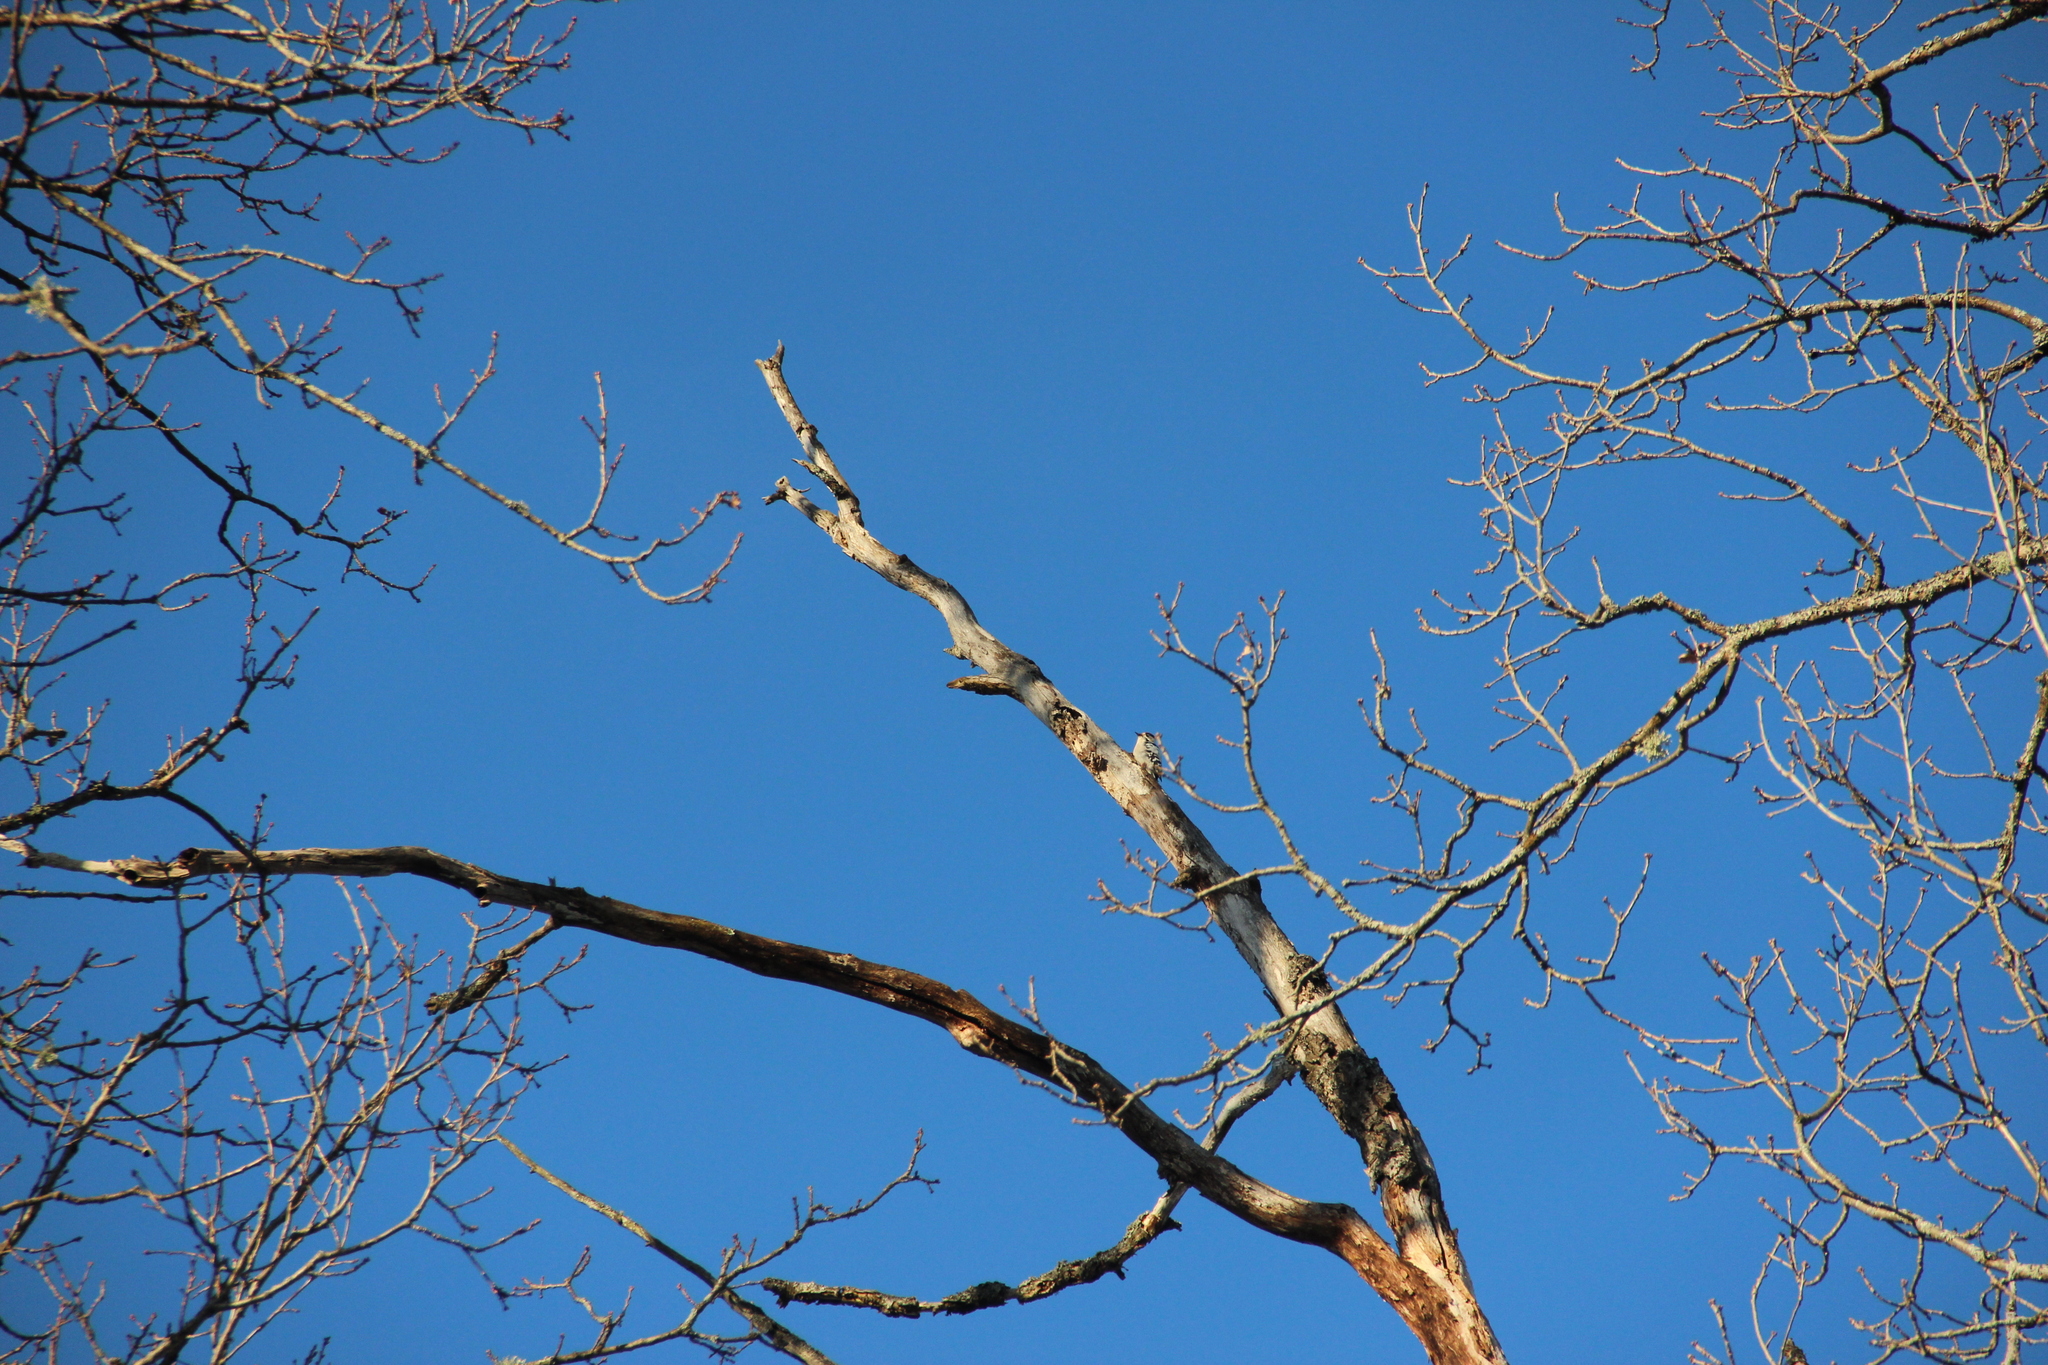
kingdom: Animalia
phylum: Chordata
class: Aves
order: Piciformes
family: Picidae
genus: Dryobates
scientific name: Dryobates minor
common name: Lesser spotted woodpecker
